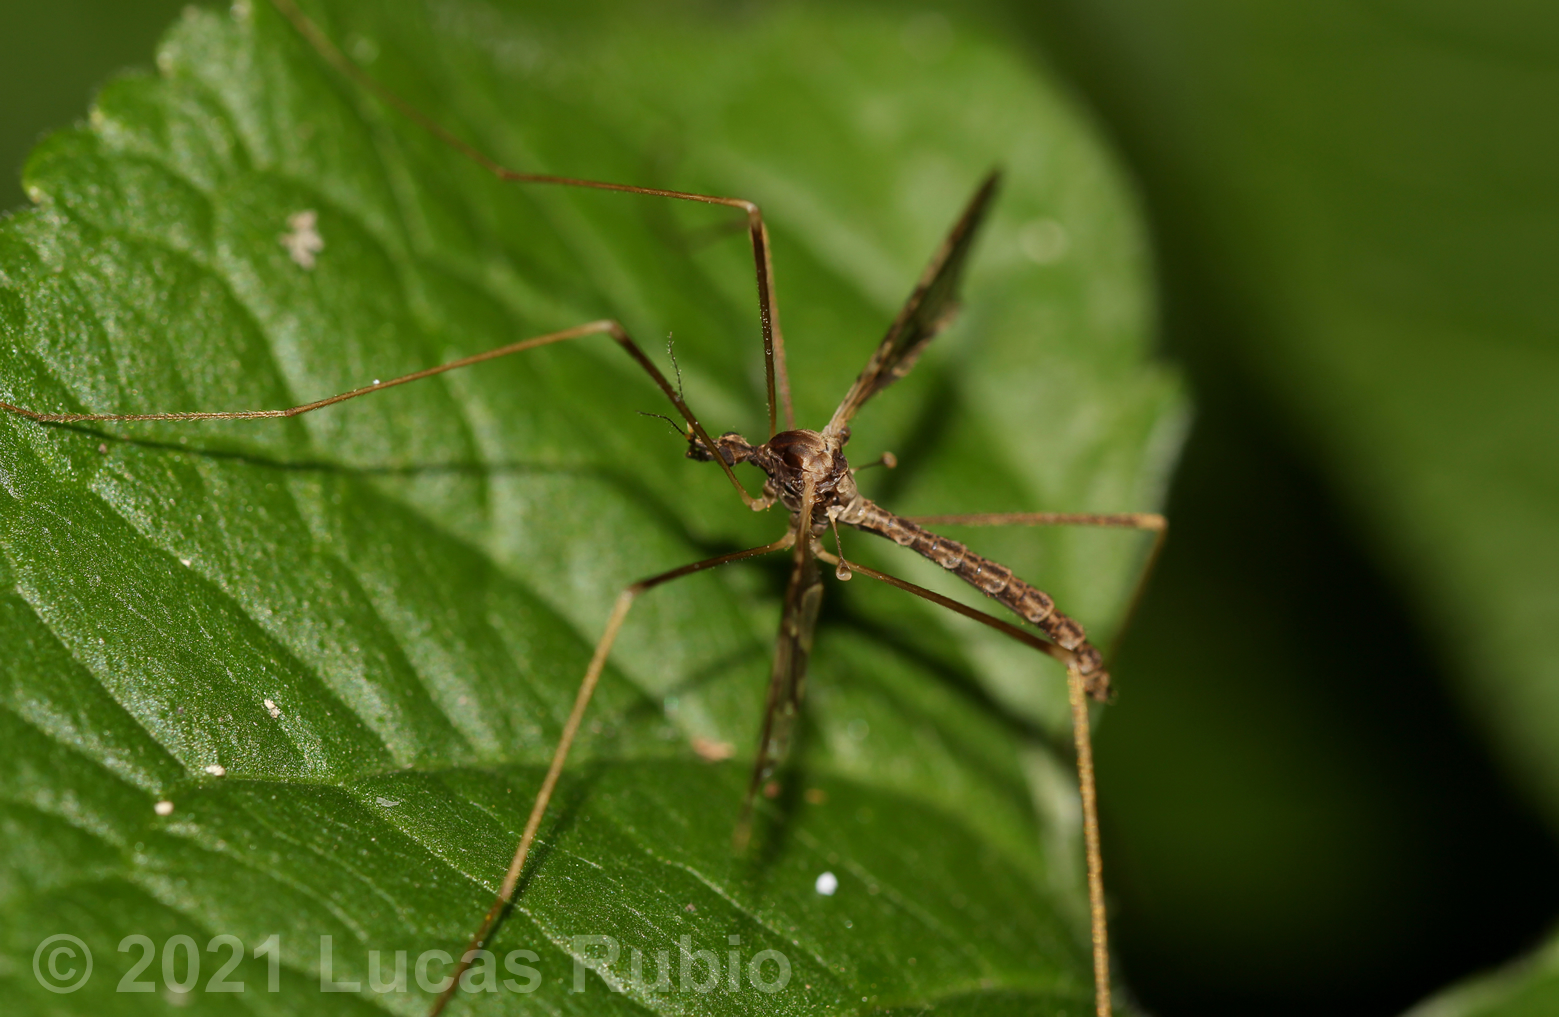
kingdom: Animalia
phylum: Arthropoda
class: Insecta
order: Diptera
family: Limoniidae
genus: Epiphragma
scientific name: Epiphragma imitans
